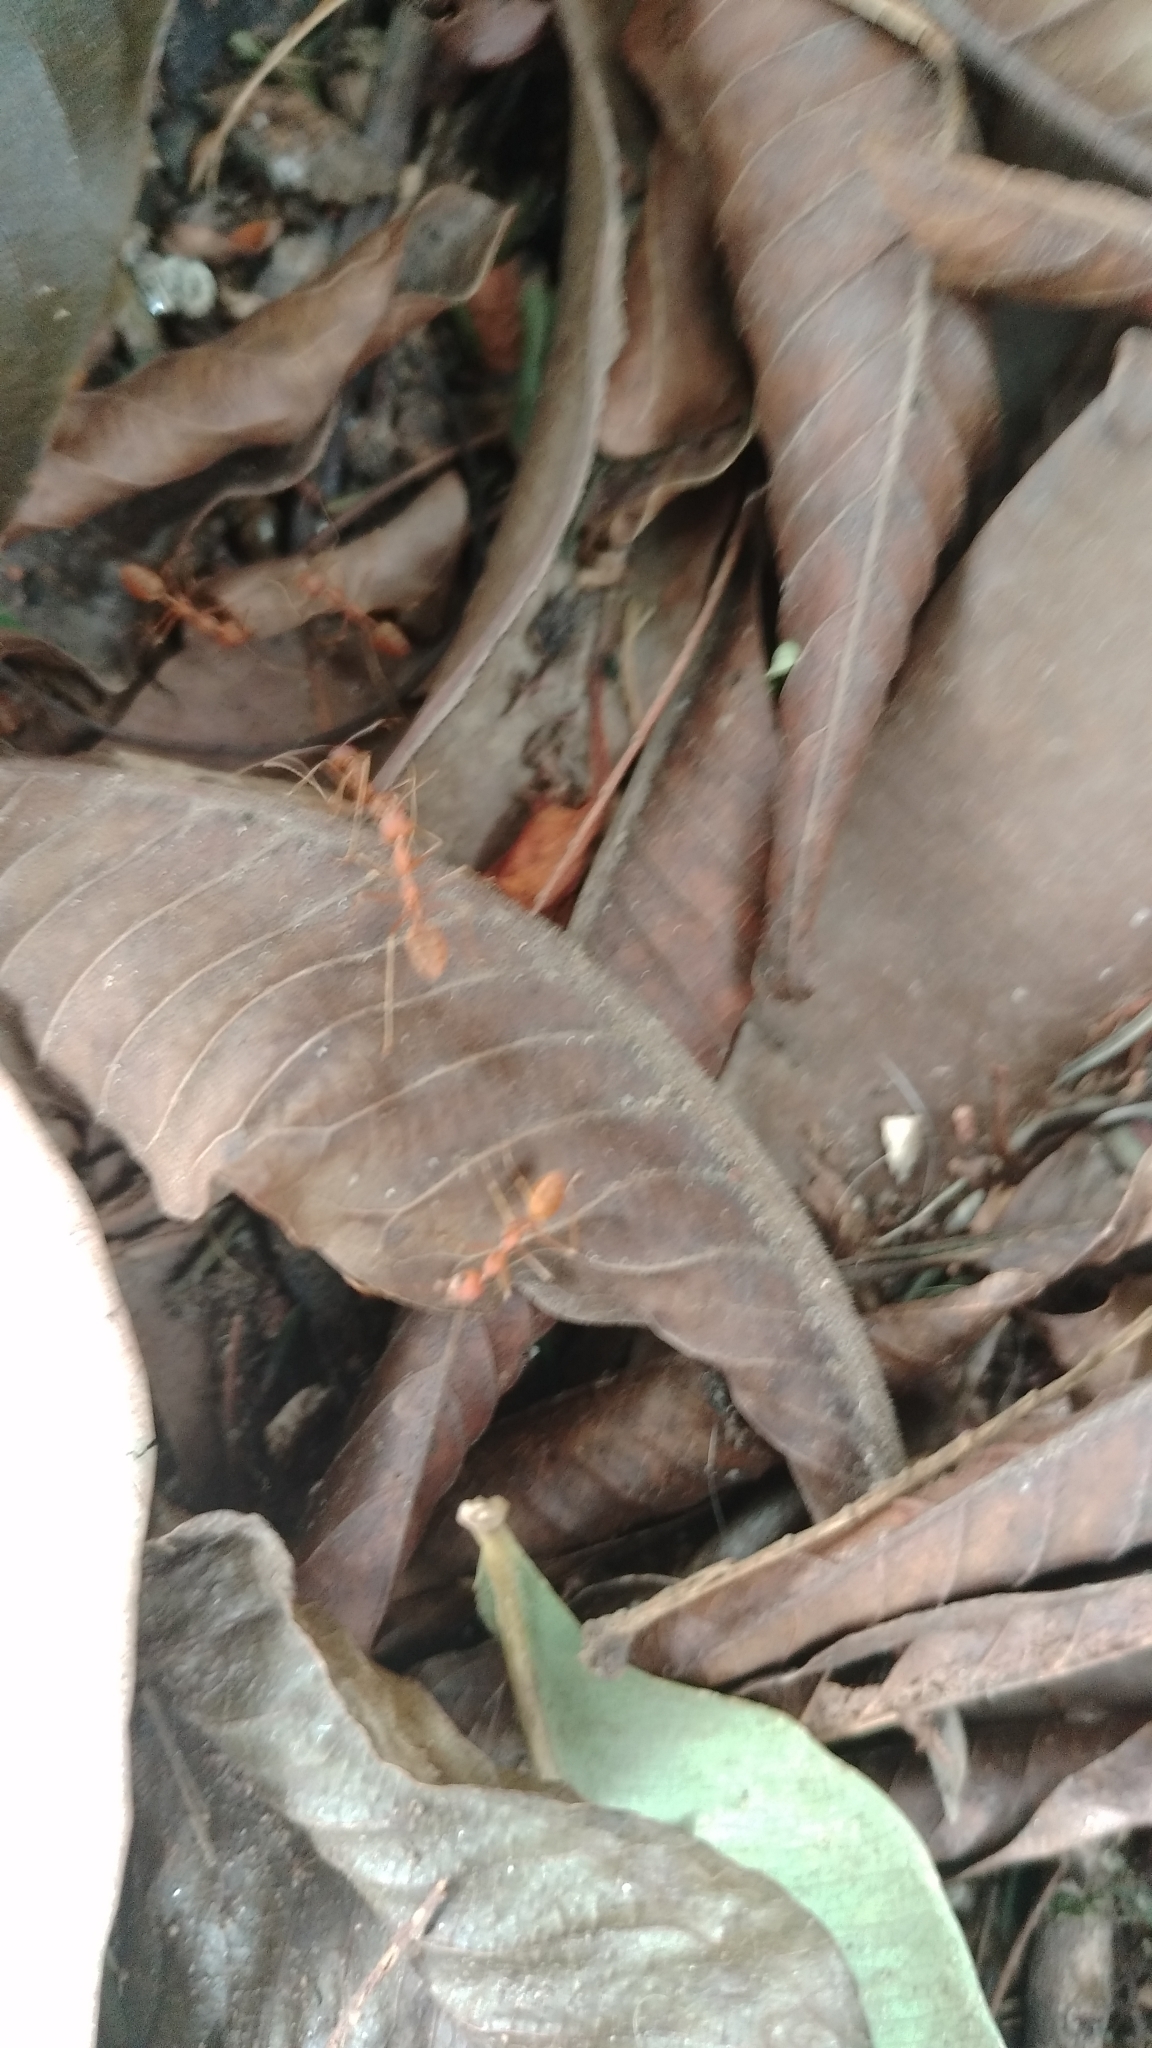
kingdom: Animalia
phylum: Arthropoda
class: Insecta
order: Hymenoptera
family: Formicidae
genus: Oecophylla
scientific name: Oecophylla smaragdina
